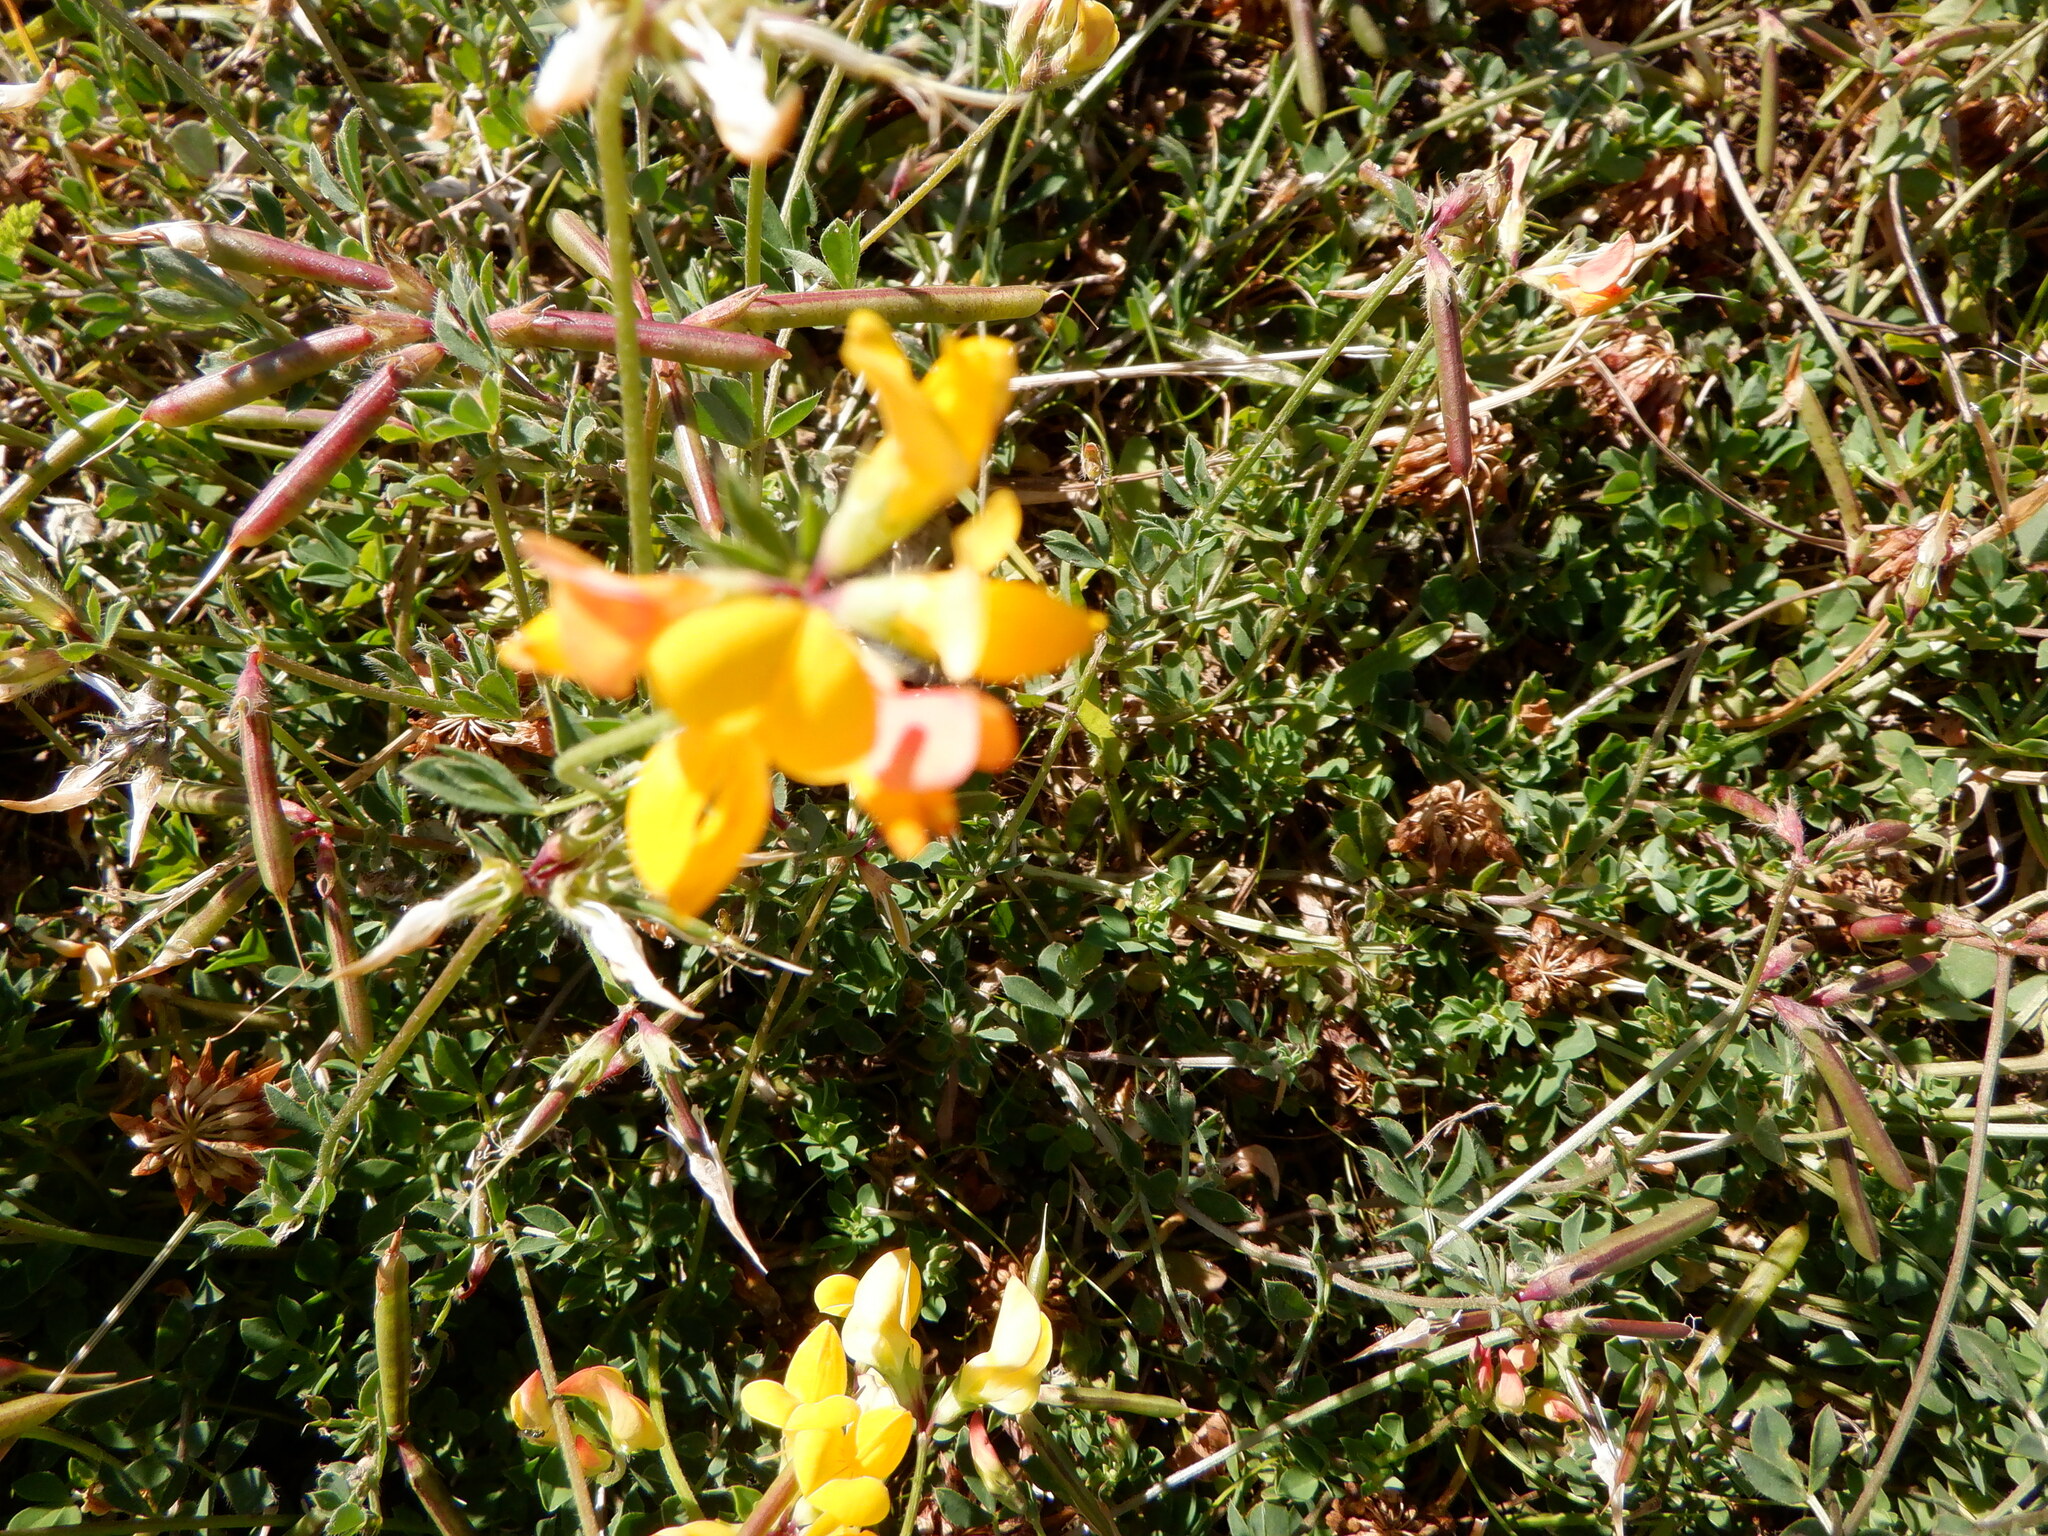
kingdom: Plantae
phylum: Tracheophyta
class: Magnoliopsida
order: Fabales
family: Fabaceae
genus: Lotus
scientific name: Lotus corniculatus
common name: Common bird's-foot-trefoil
